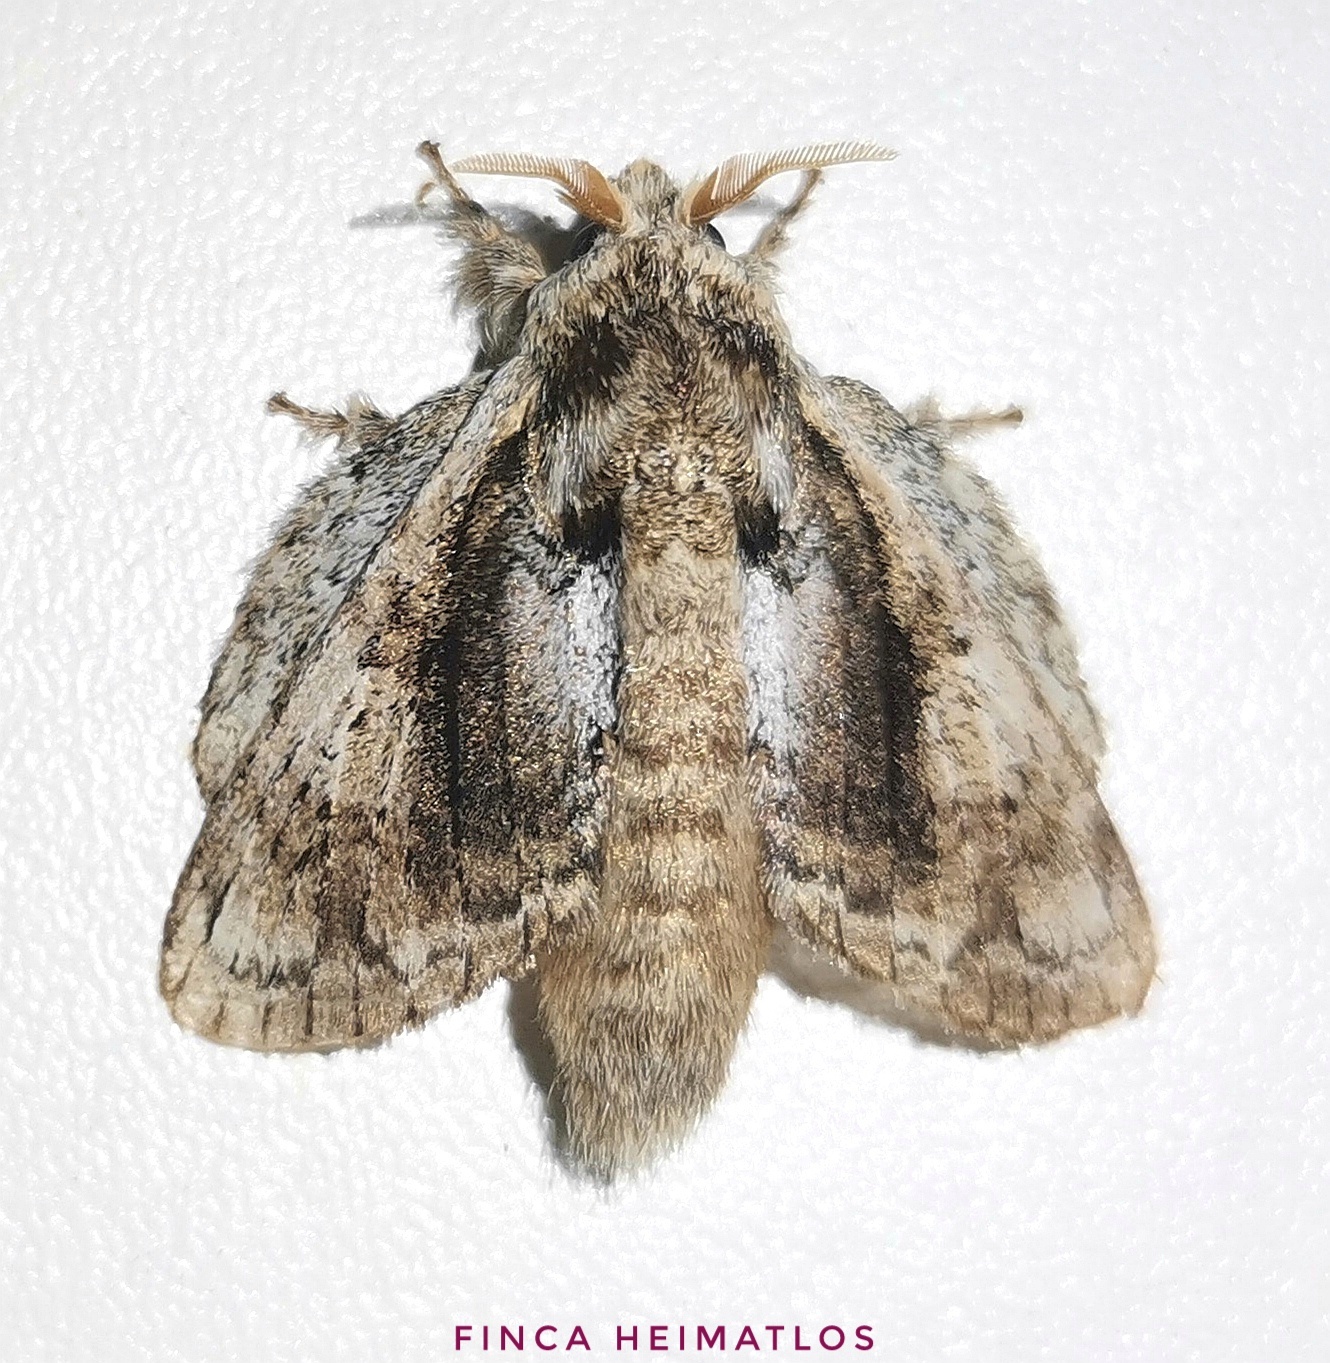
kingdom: Animalia
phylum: Arthropoda
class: Insecta
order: Lepidoptera
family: Lasiocampidae
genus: Euglyphis
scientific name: Euglyphis tamila
